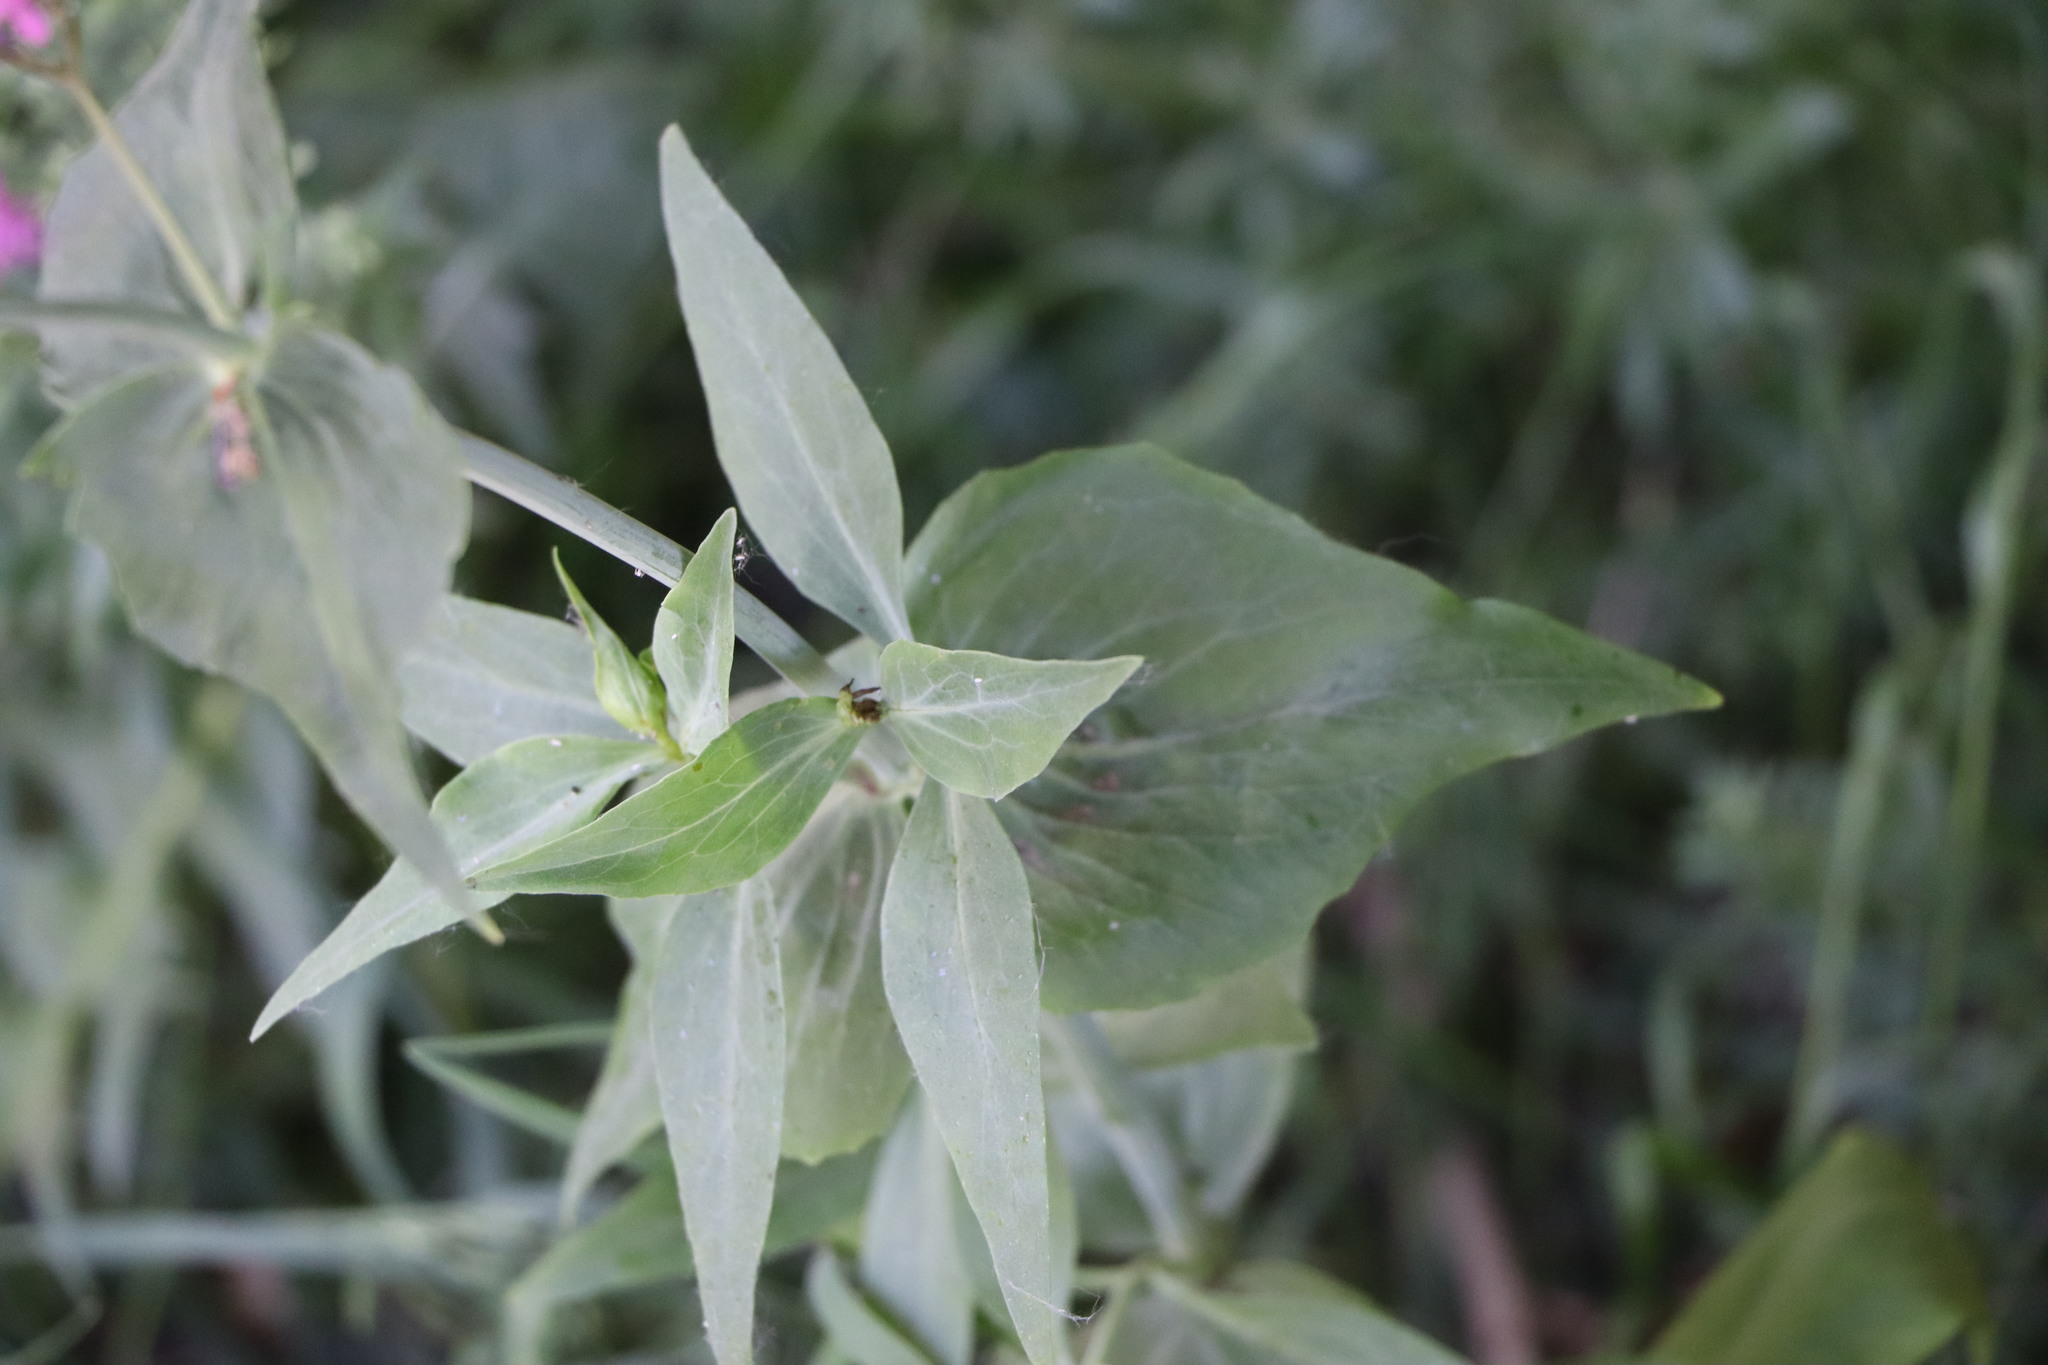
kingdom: Plantae
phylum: Tracheophyta
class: Magnoliopsida
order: Dipsacales
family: Caprifoliaceae
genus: Centranthus
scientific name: Centranthus ruber
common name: Red valerian
